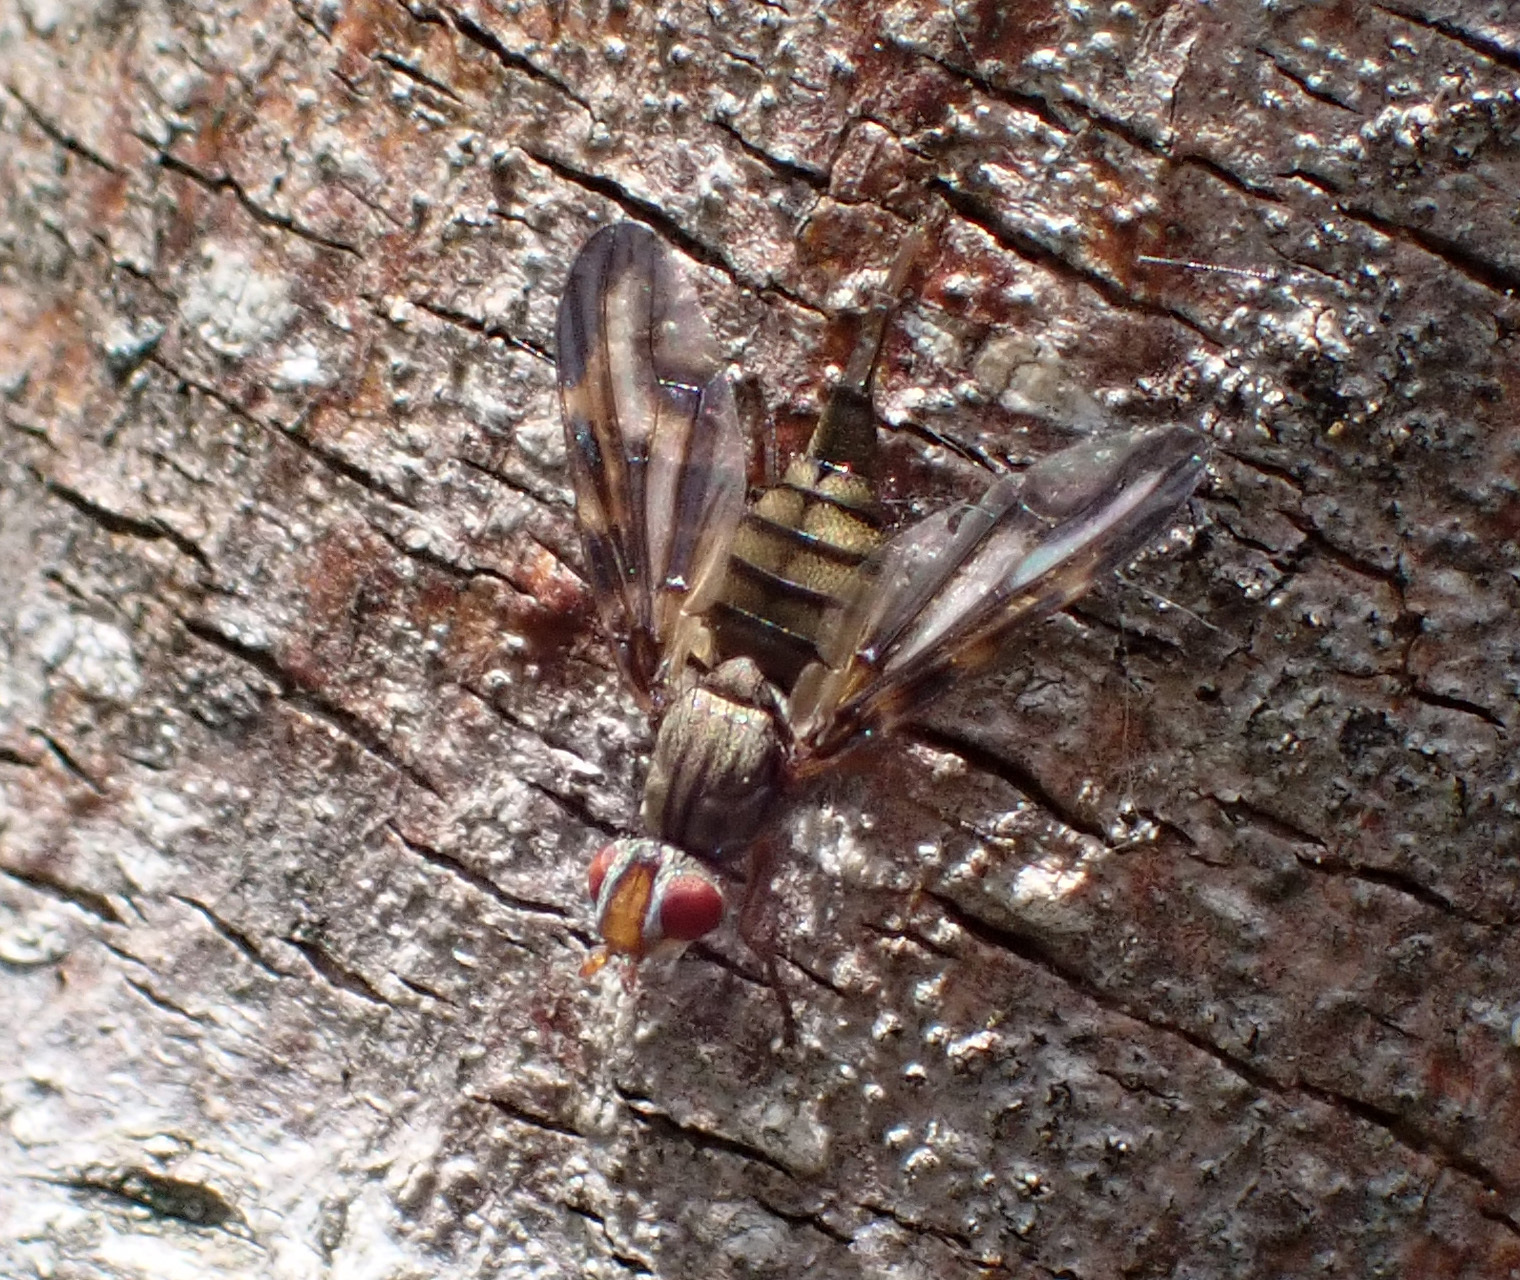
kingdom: Animalia
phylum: Arthropoda
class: Insecta
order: Diptera
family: Ulidiidae
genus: Otites
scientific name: Otites lamed
